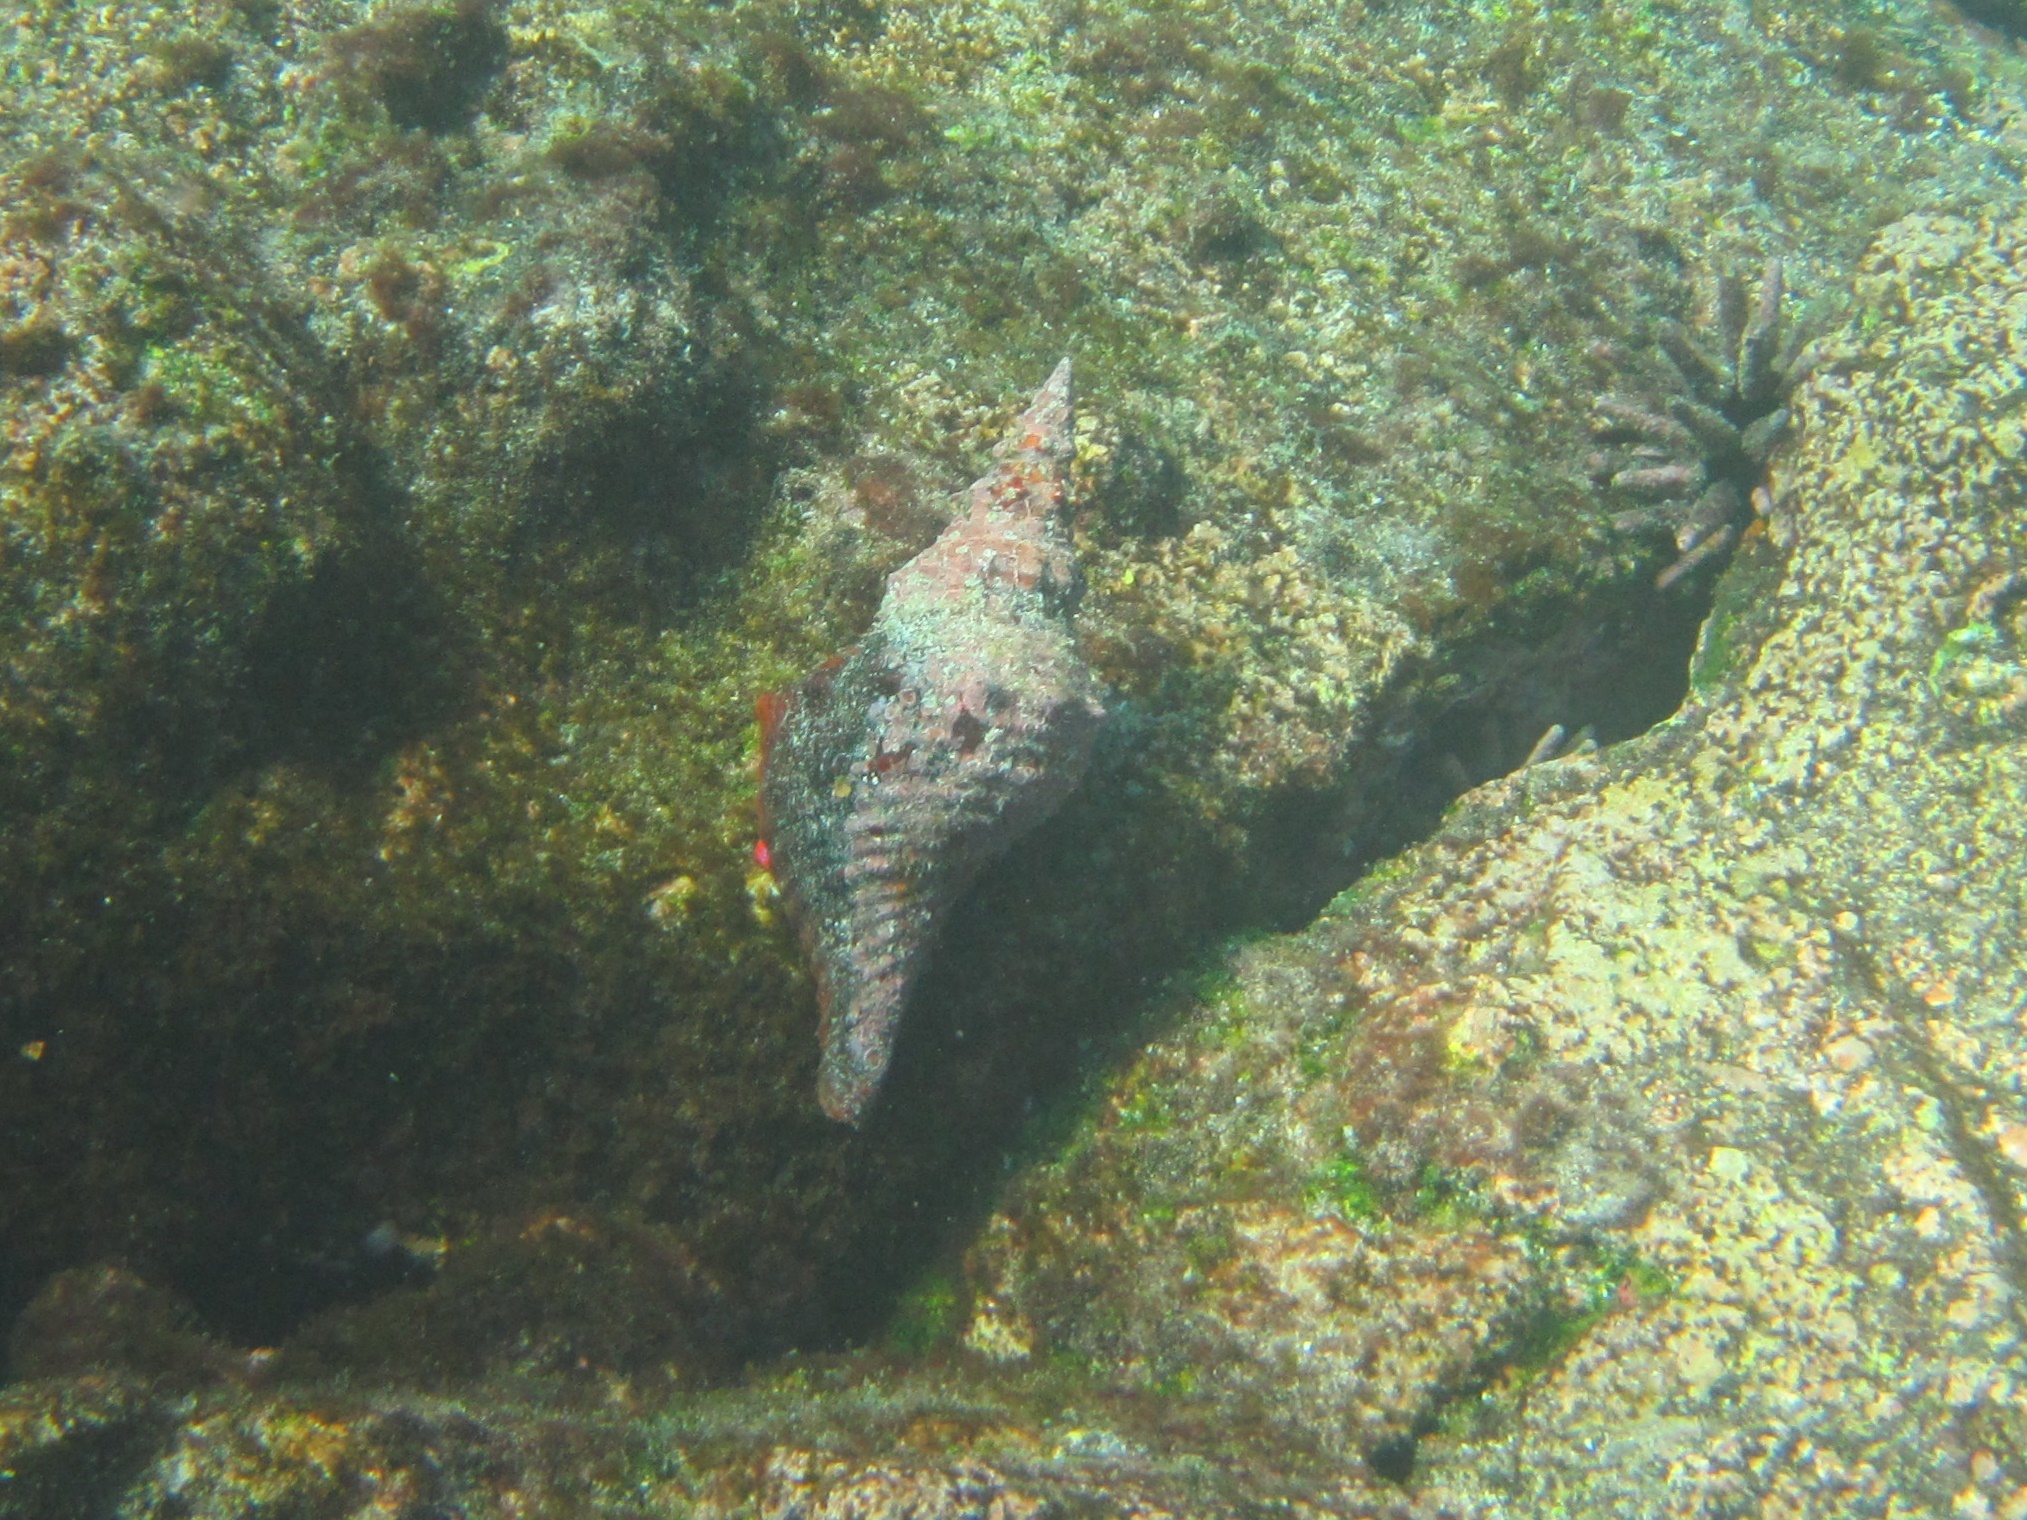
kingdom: Animalia
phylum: Mollusca
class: Gastropoda
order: Neogastropoda
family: Fasciolariidae
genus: Triplofusus
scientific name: Triplofusus princeps
